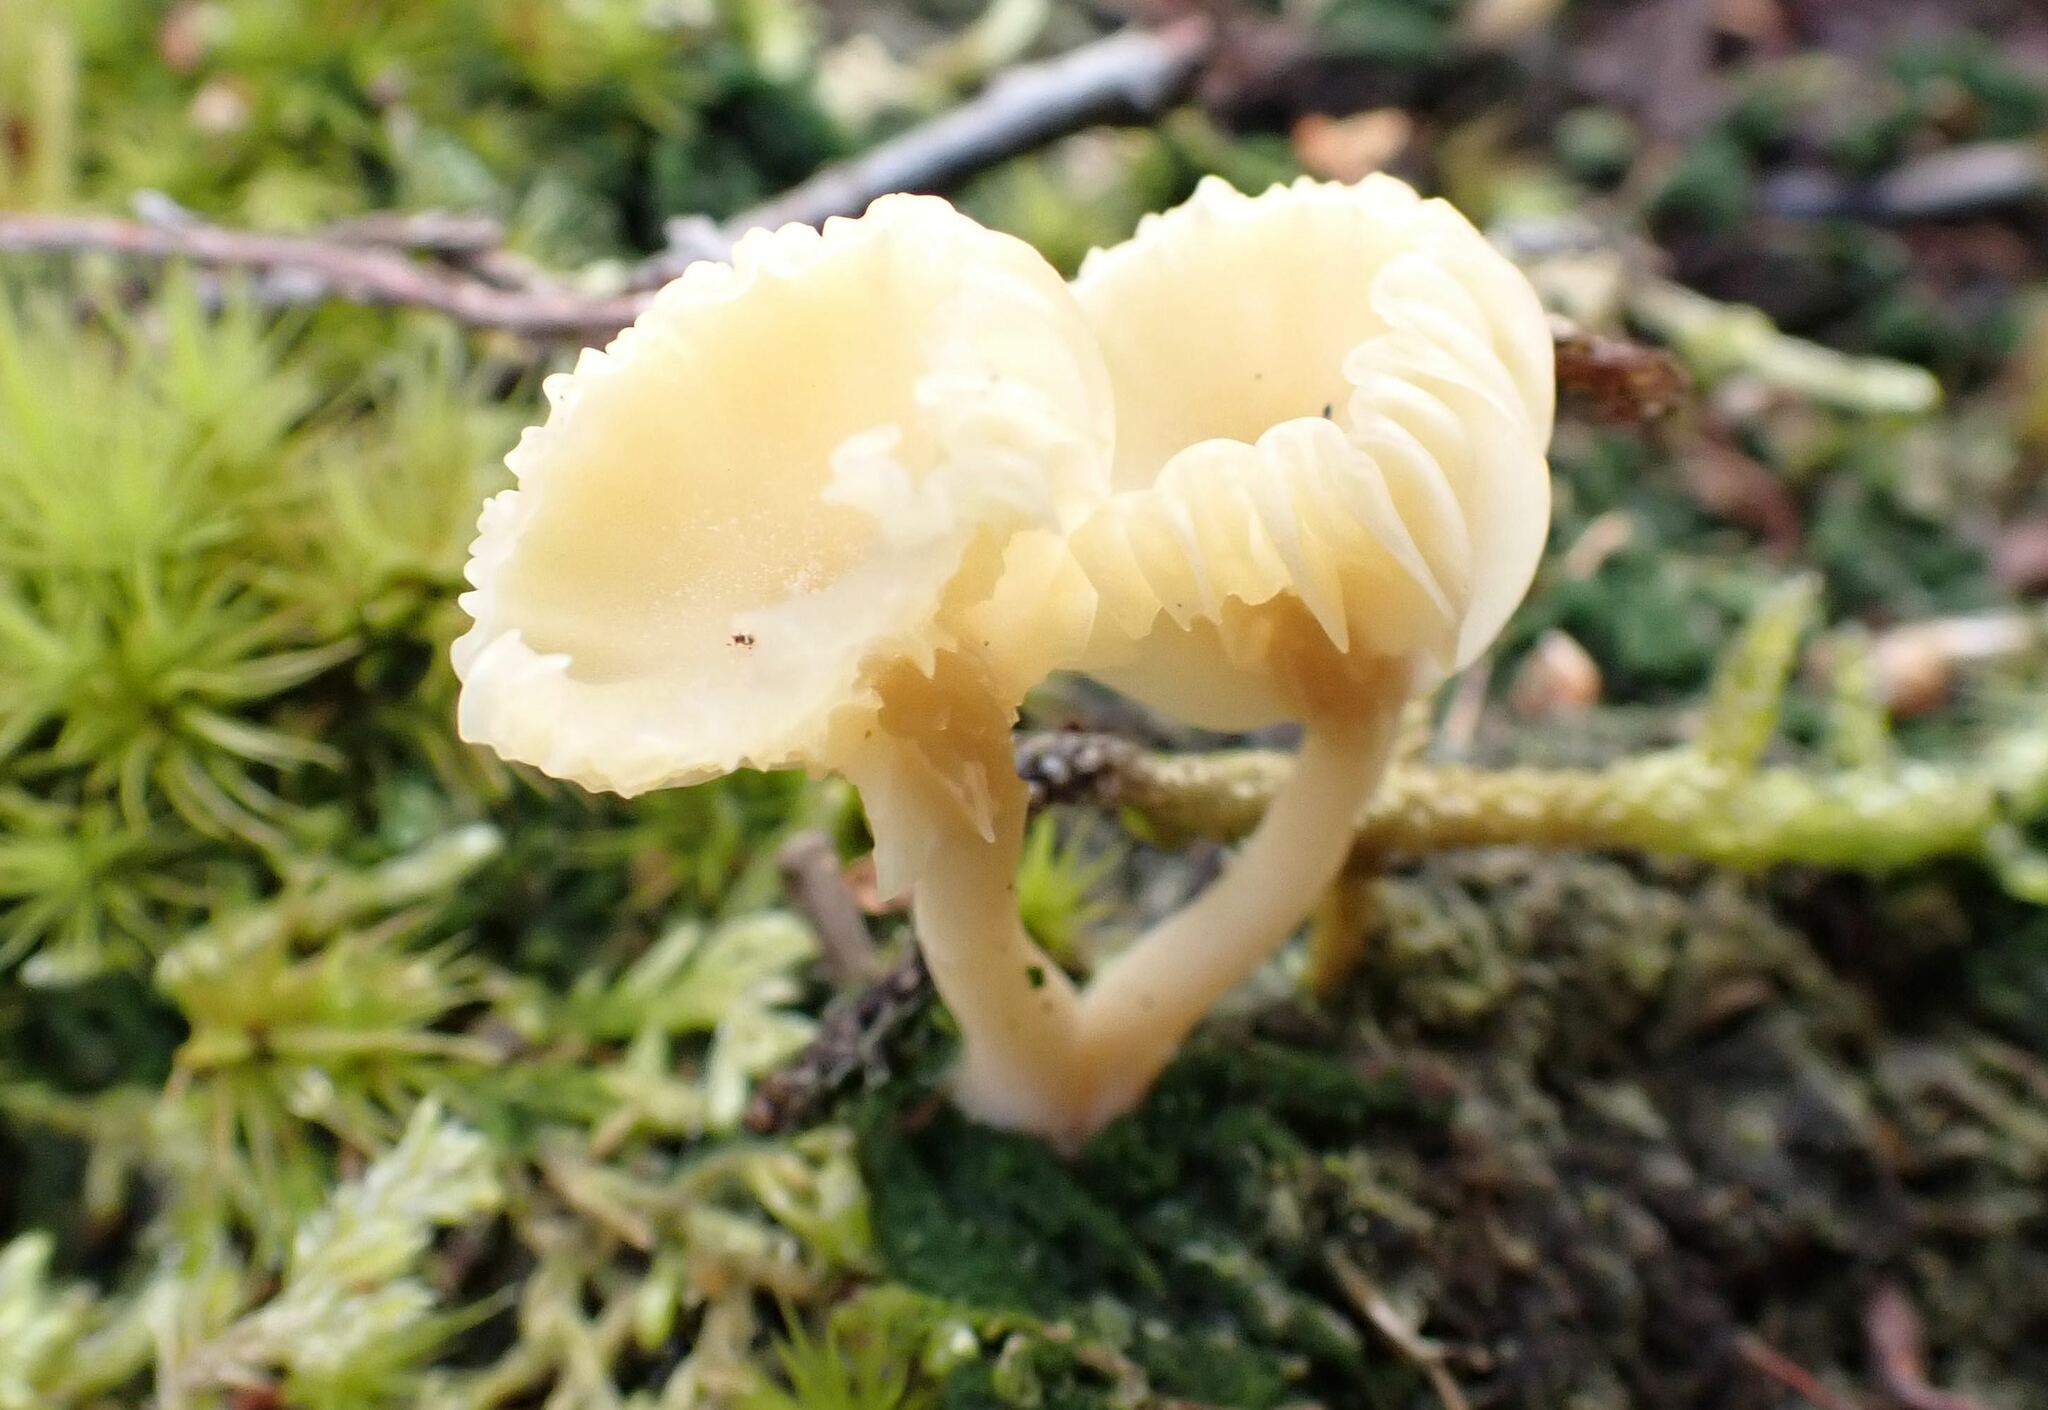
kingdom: Fungi
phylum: Basidiomycota
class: Agaricomycetes
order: Agaricales
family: Hygrophoraceae
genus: Cuphophyllus
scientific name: Cuphophyllus virgineus
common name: Snowy waxcap
